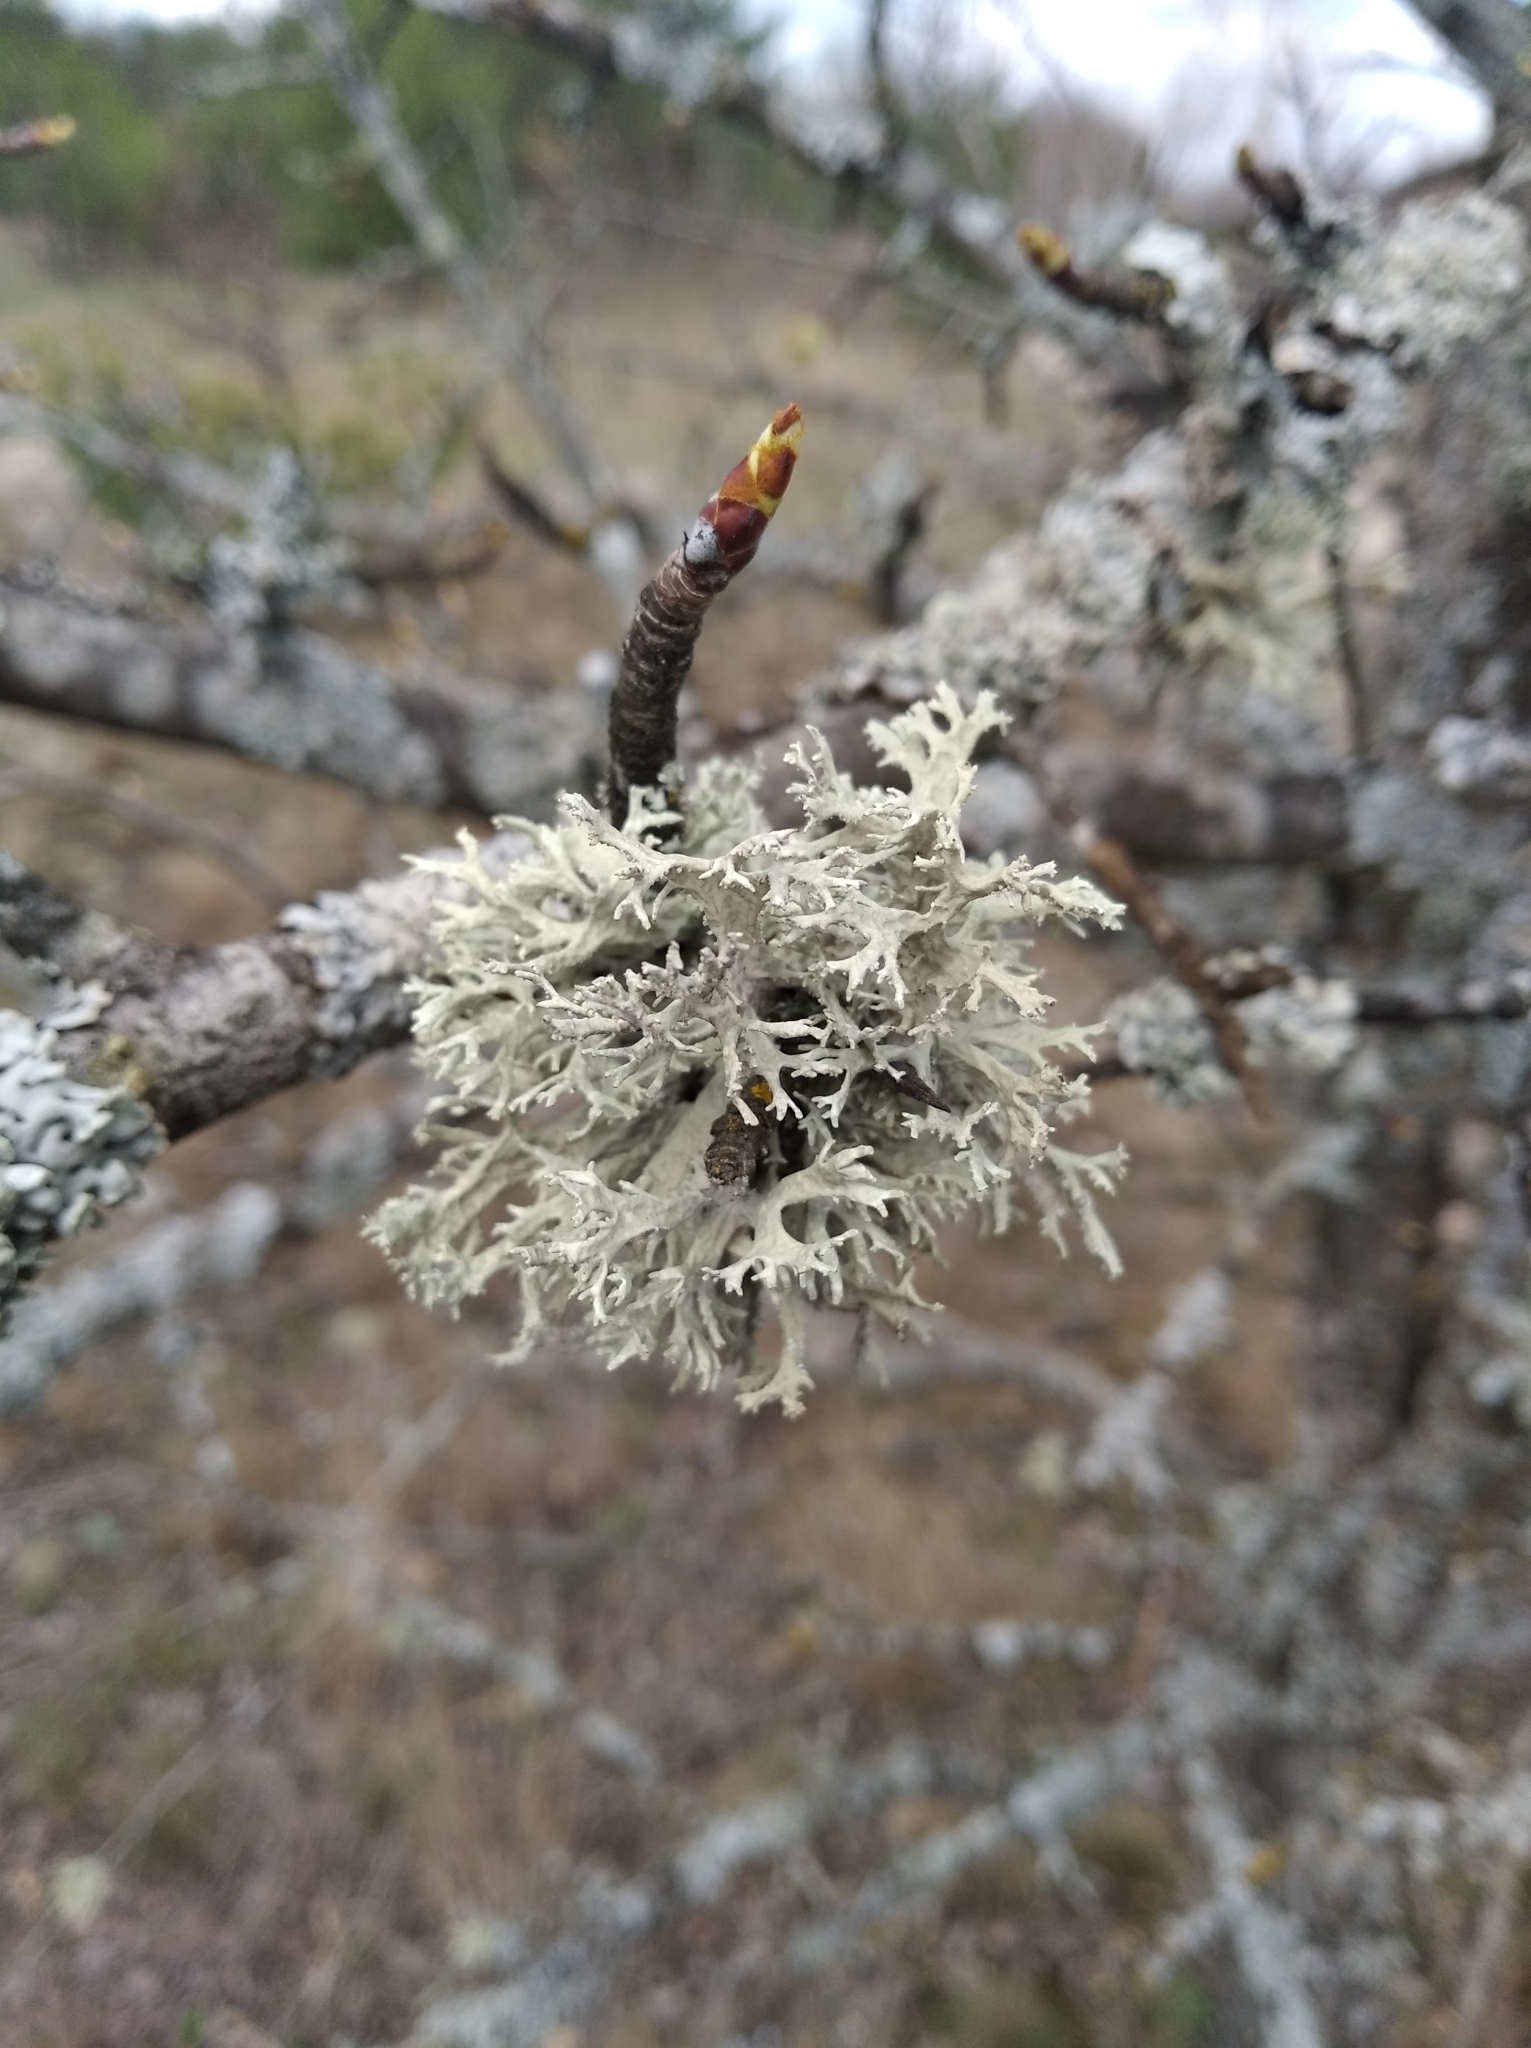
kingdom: Fungi
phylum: Ascomycota
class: Lecanoromycetes
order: Lecanorales
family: Parmeliaceae
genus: Evernia
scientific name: Evernia prunastri
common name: Oak moss
